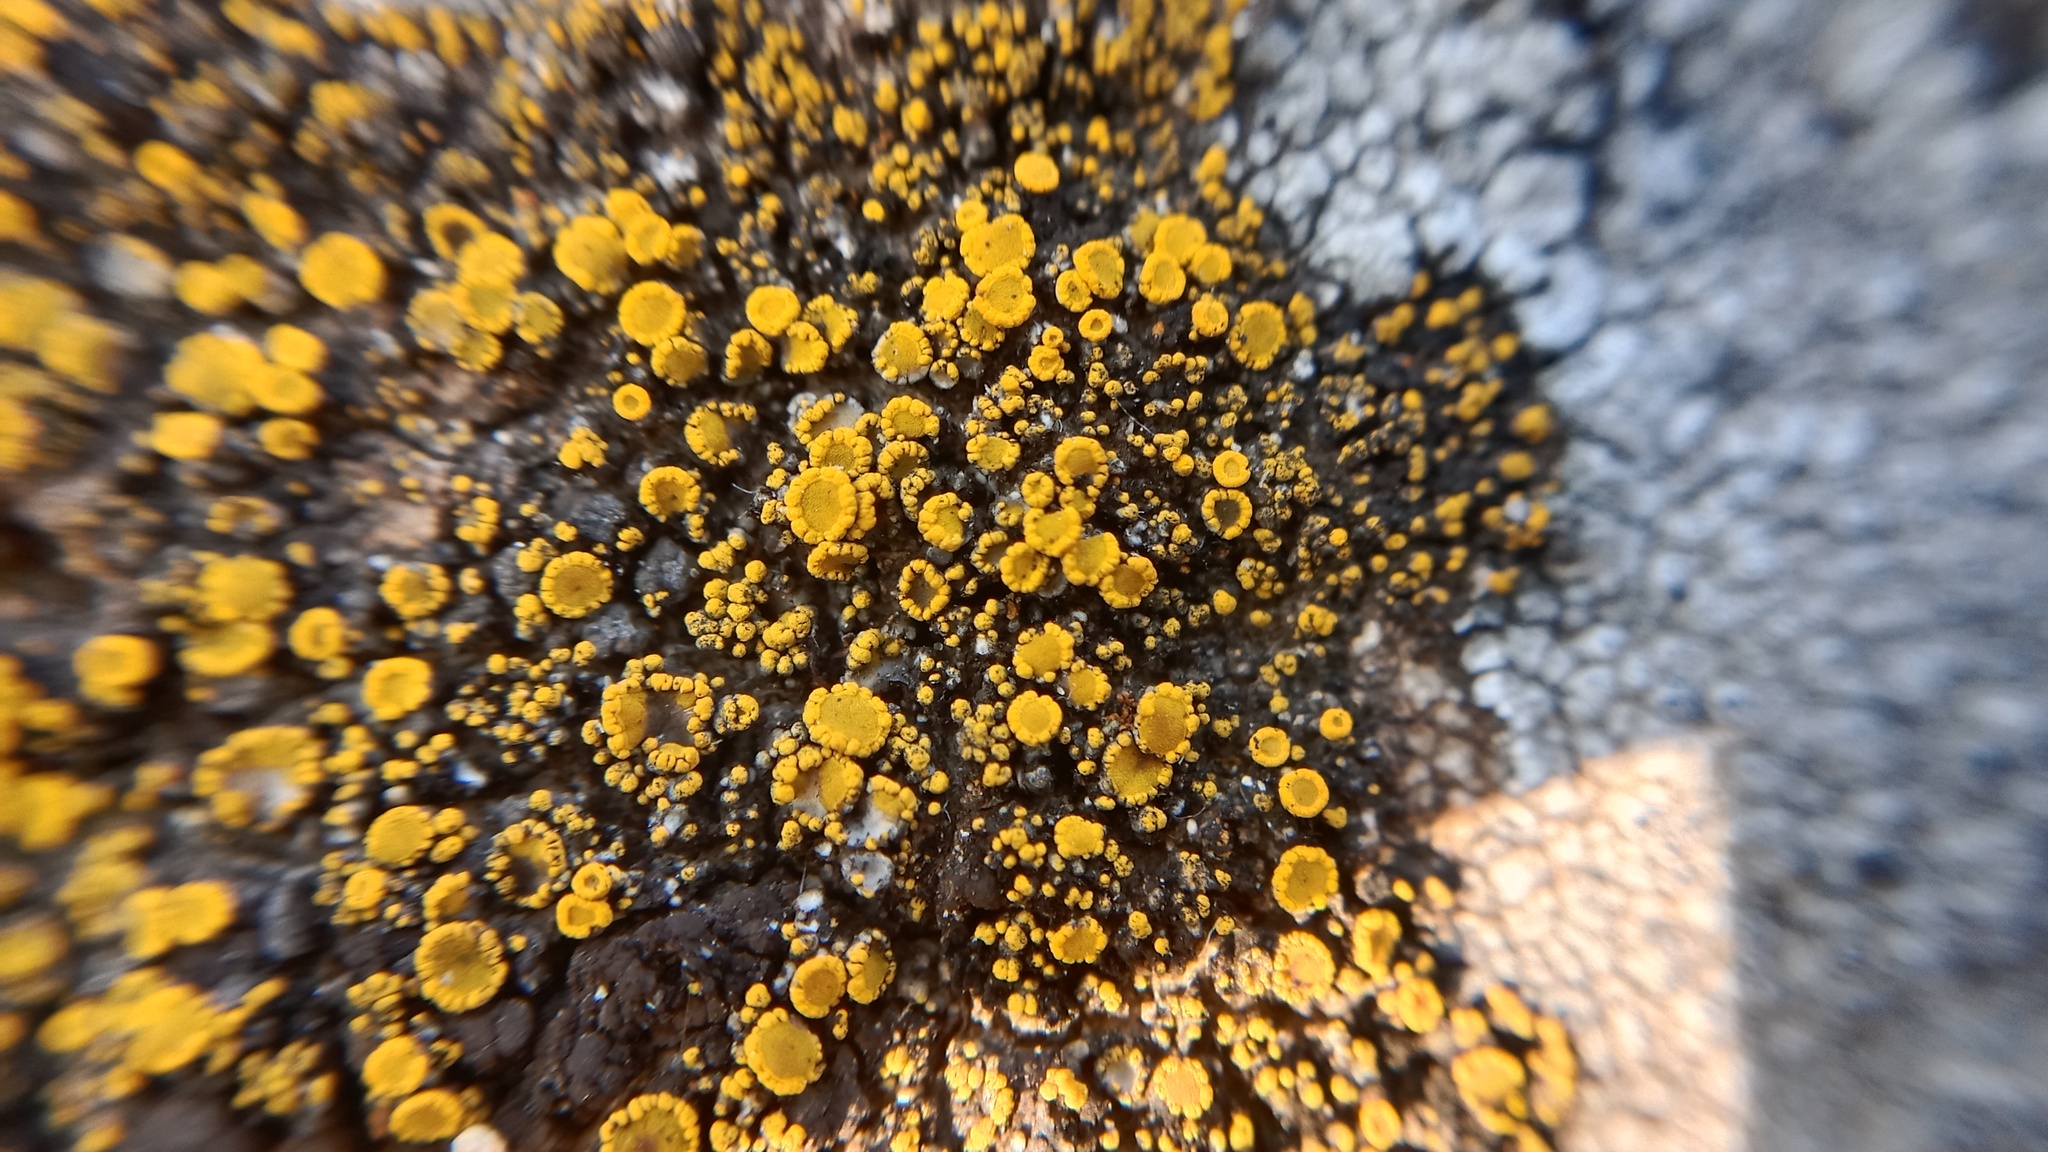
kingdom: Fungi
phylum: Ascomycota
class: Candelariomycetes
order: Candelariales
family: Candelariaceae
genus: Candelariella
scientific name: Candelariella rosulans
